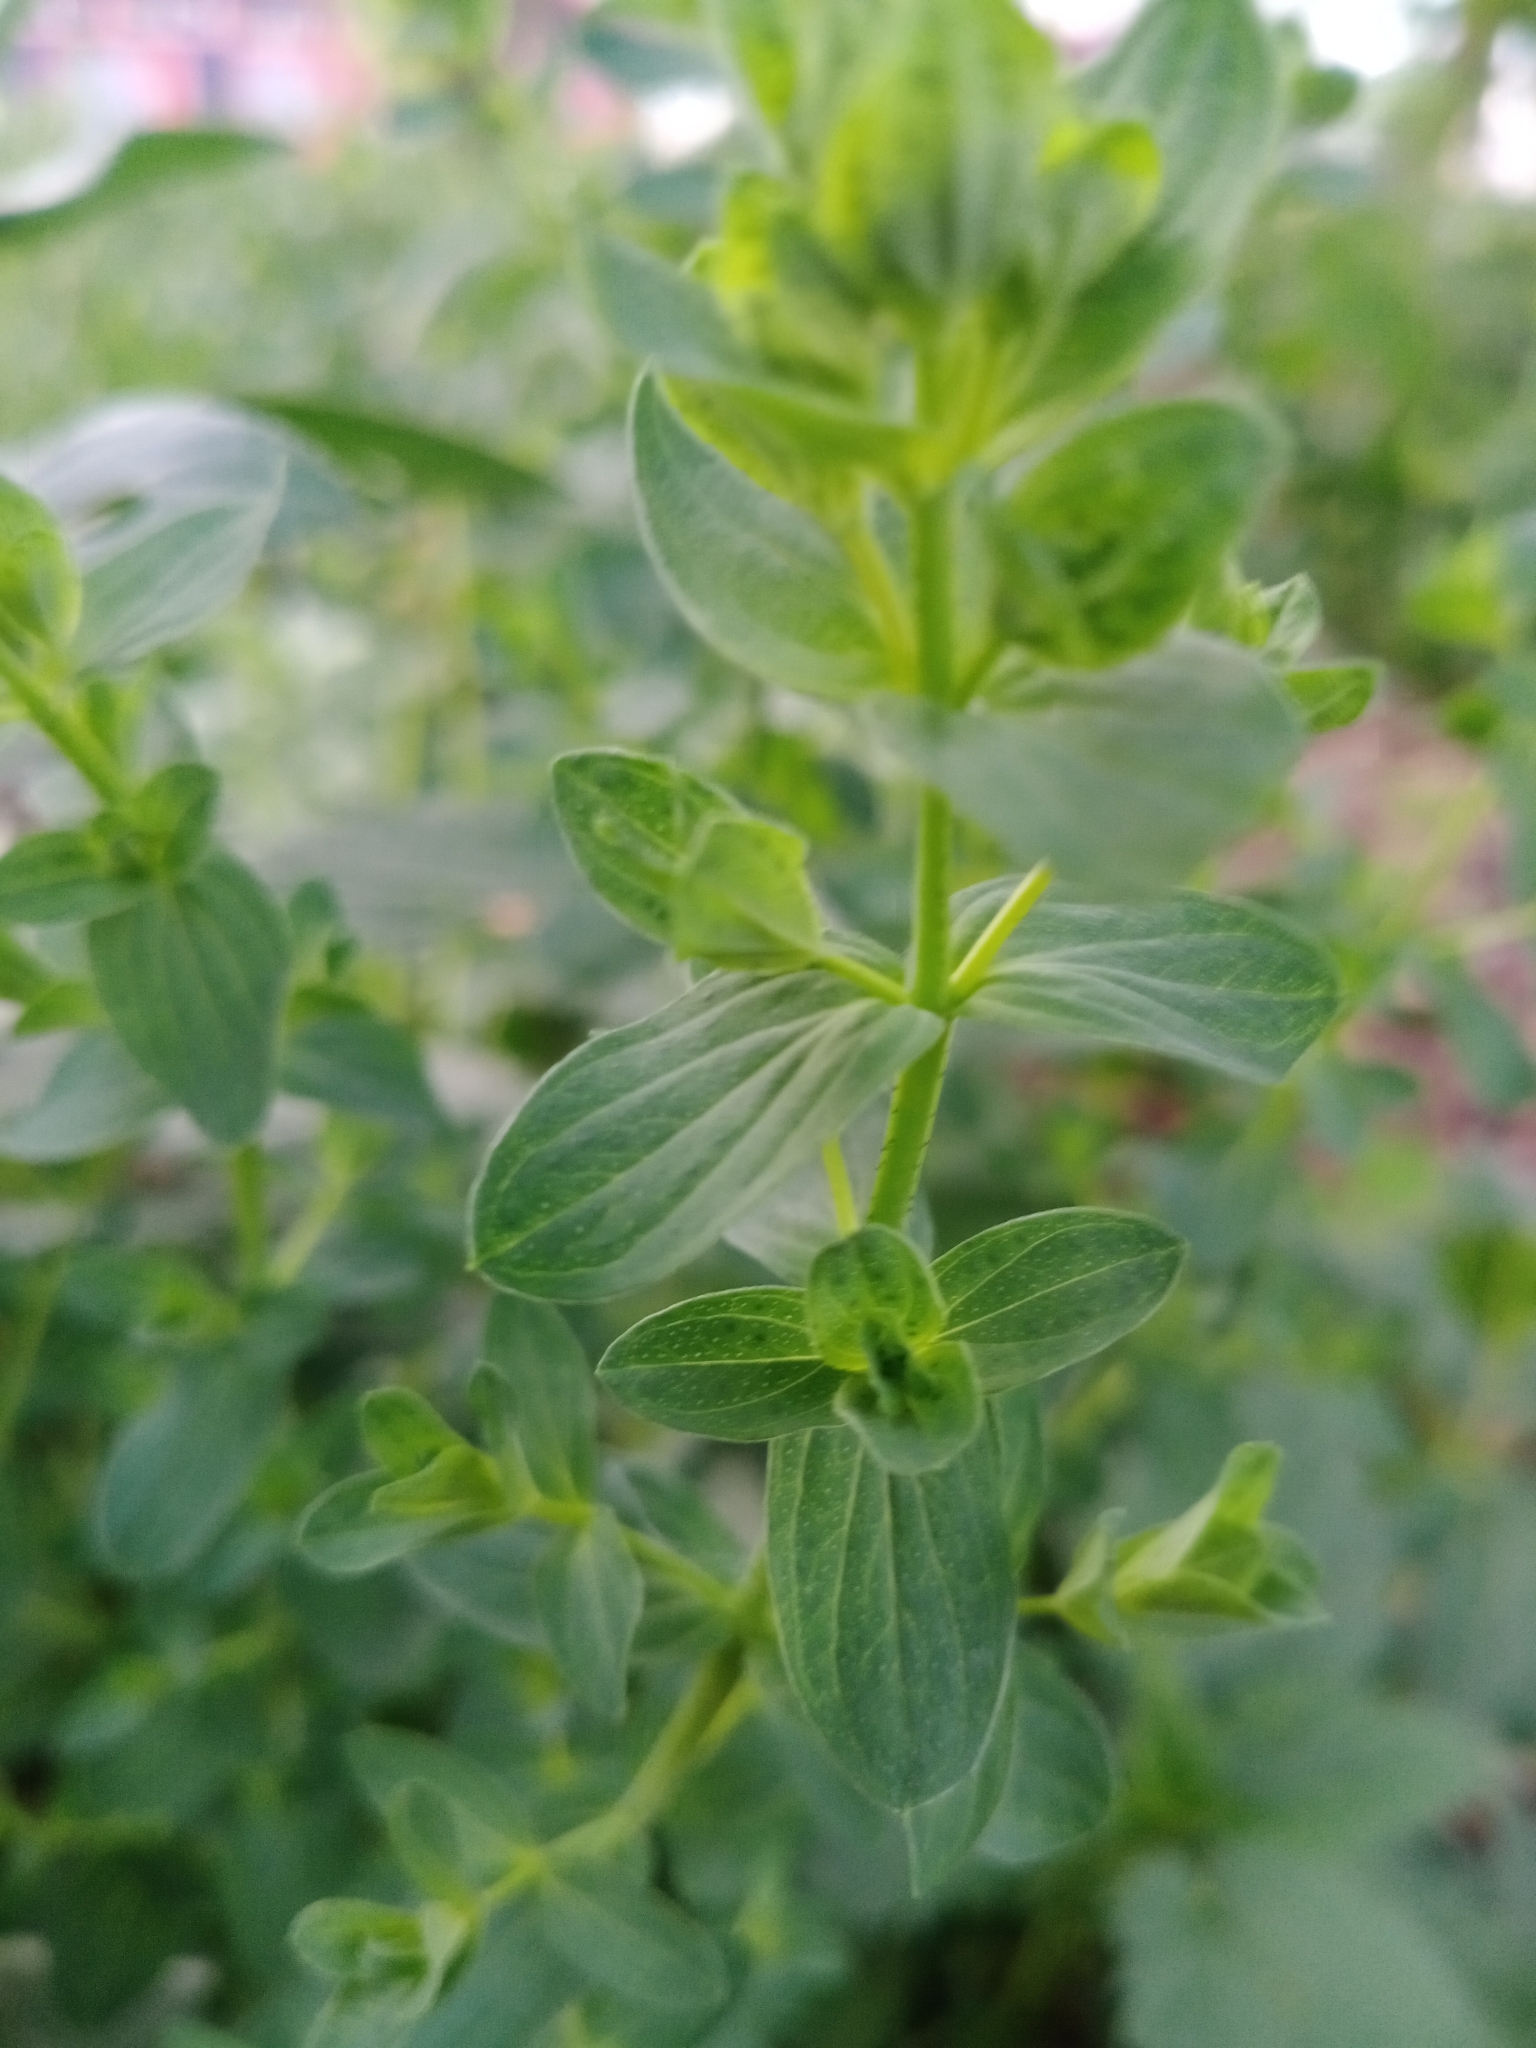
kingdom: Plantae
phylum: Tracheophyta
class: Magnoliopsida
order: Malpighiales
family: Hypericaceae
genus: Hypericum
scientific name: Hypericum perforatum
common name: Common st. johnswort
